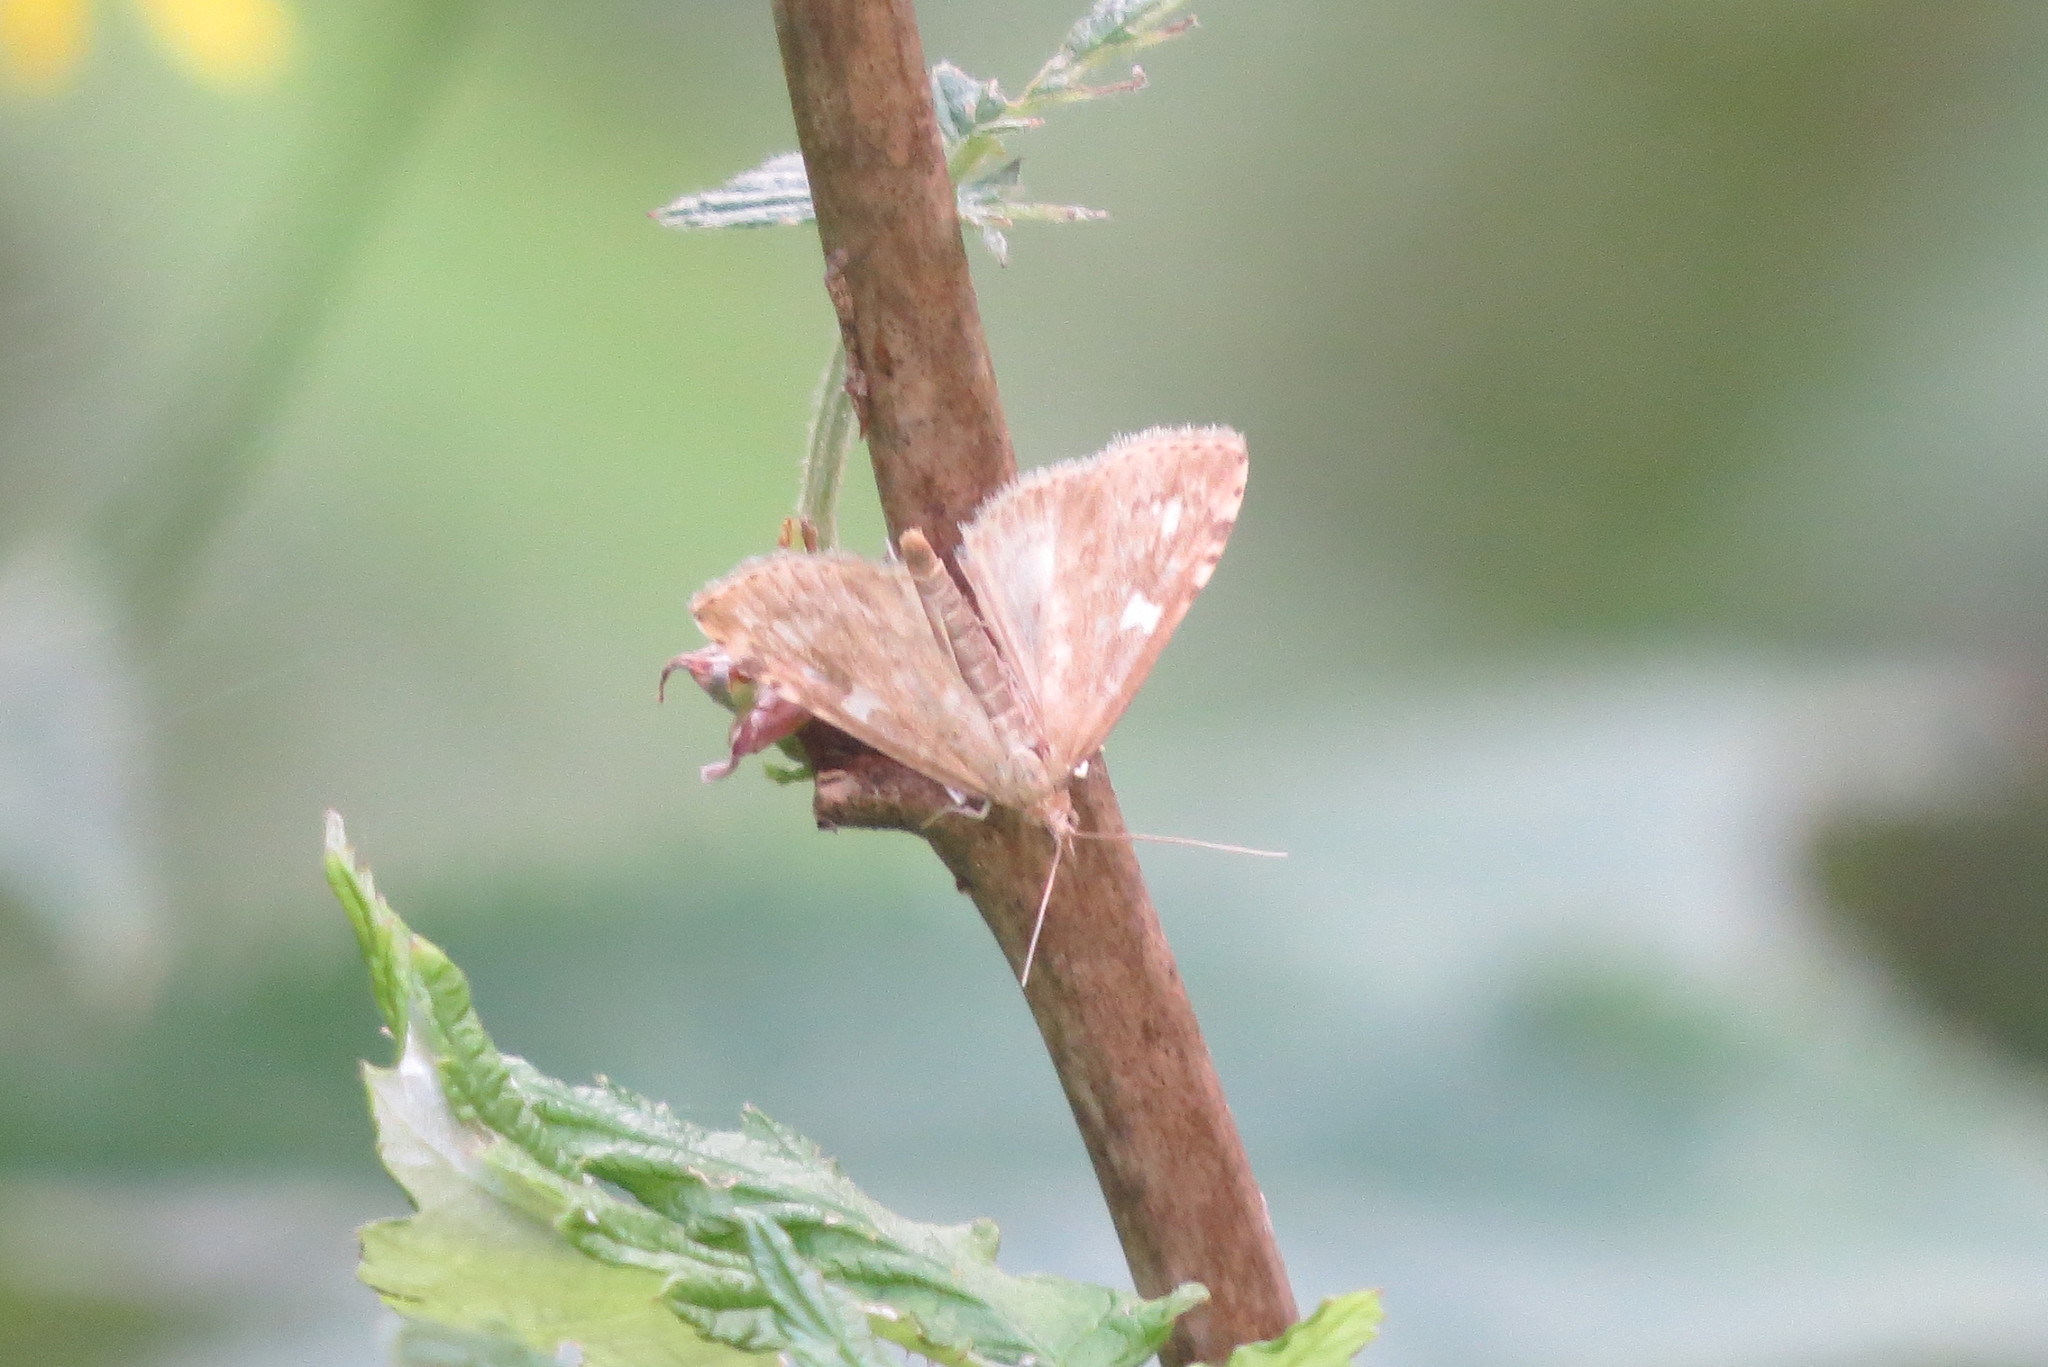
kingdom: Animalia
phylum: Arthropoda
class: Insecta
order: Lepidoptera
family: Crambidae
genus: Udea
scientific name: Udea olivalis
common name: Olive pearl
